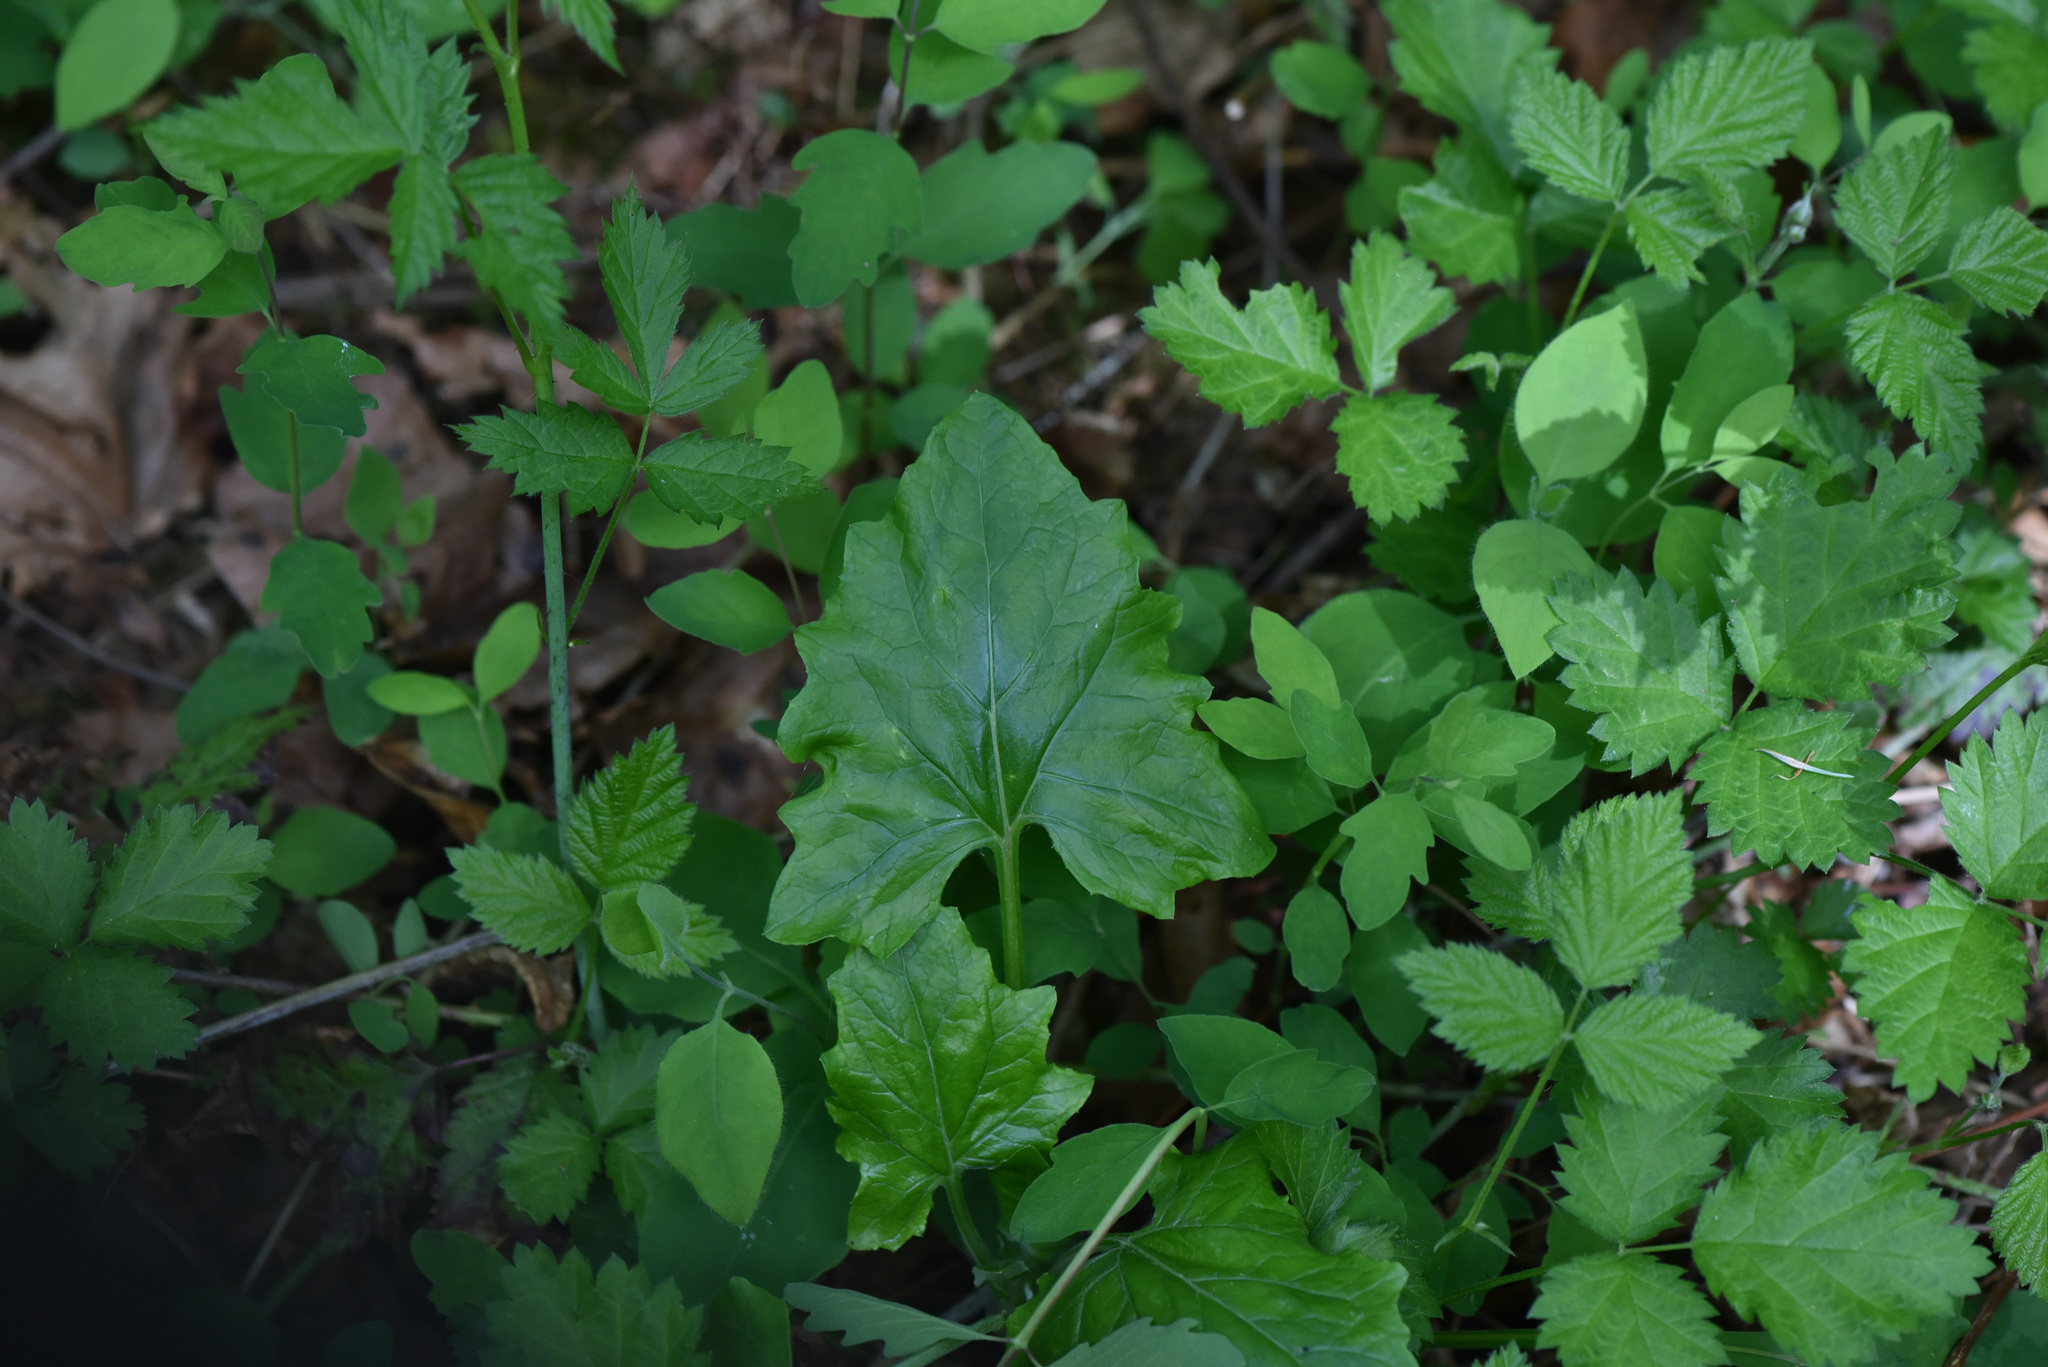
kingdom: Plantae
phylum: Tracheophyta
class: Magnoliopsida
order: Asterales
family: Asteraceae
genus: Adenocaulon
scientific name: Adenocaulon bicolor
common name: Trailplant
